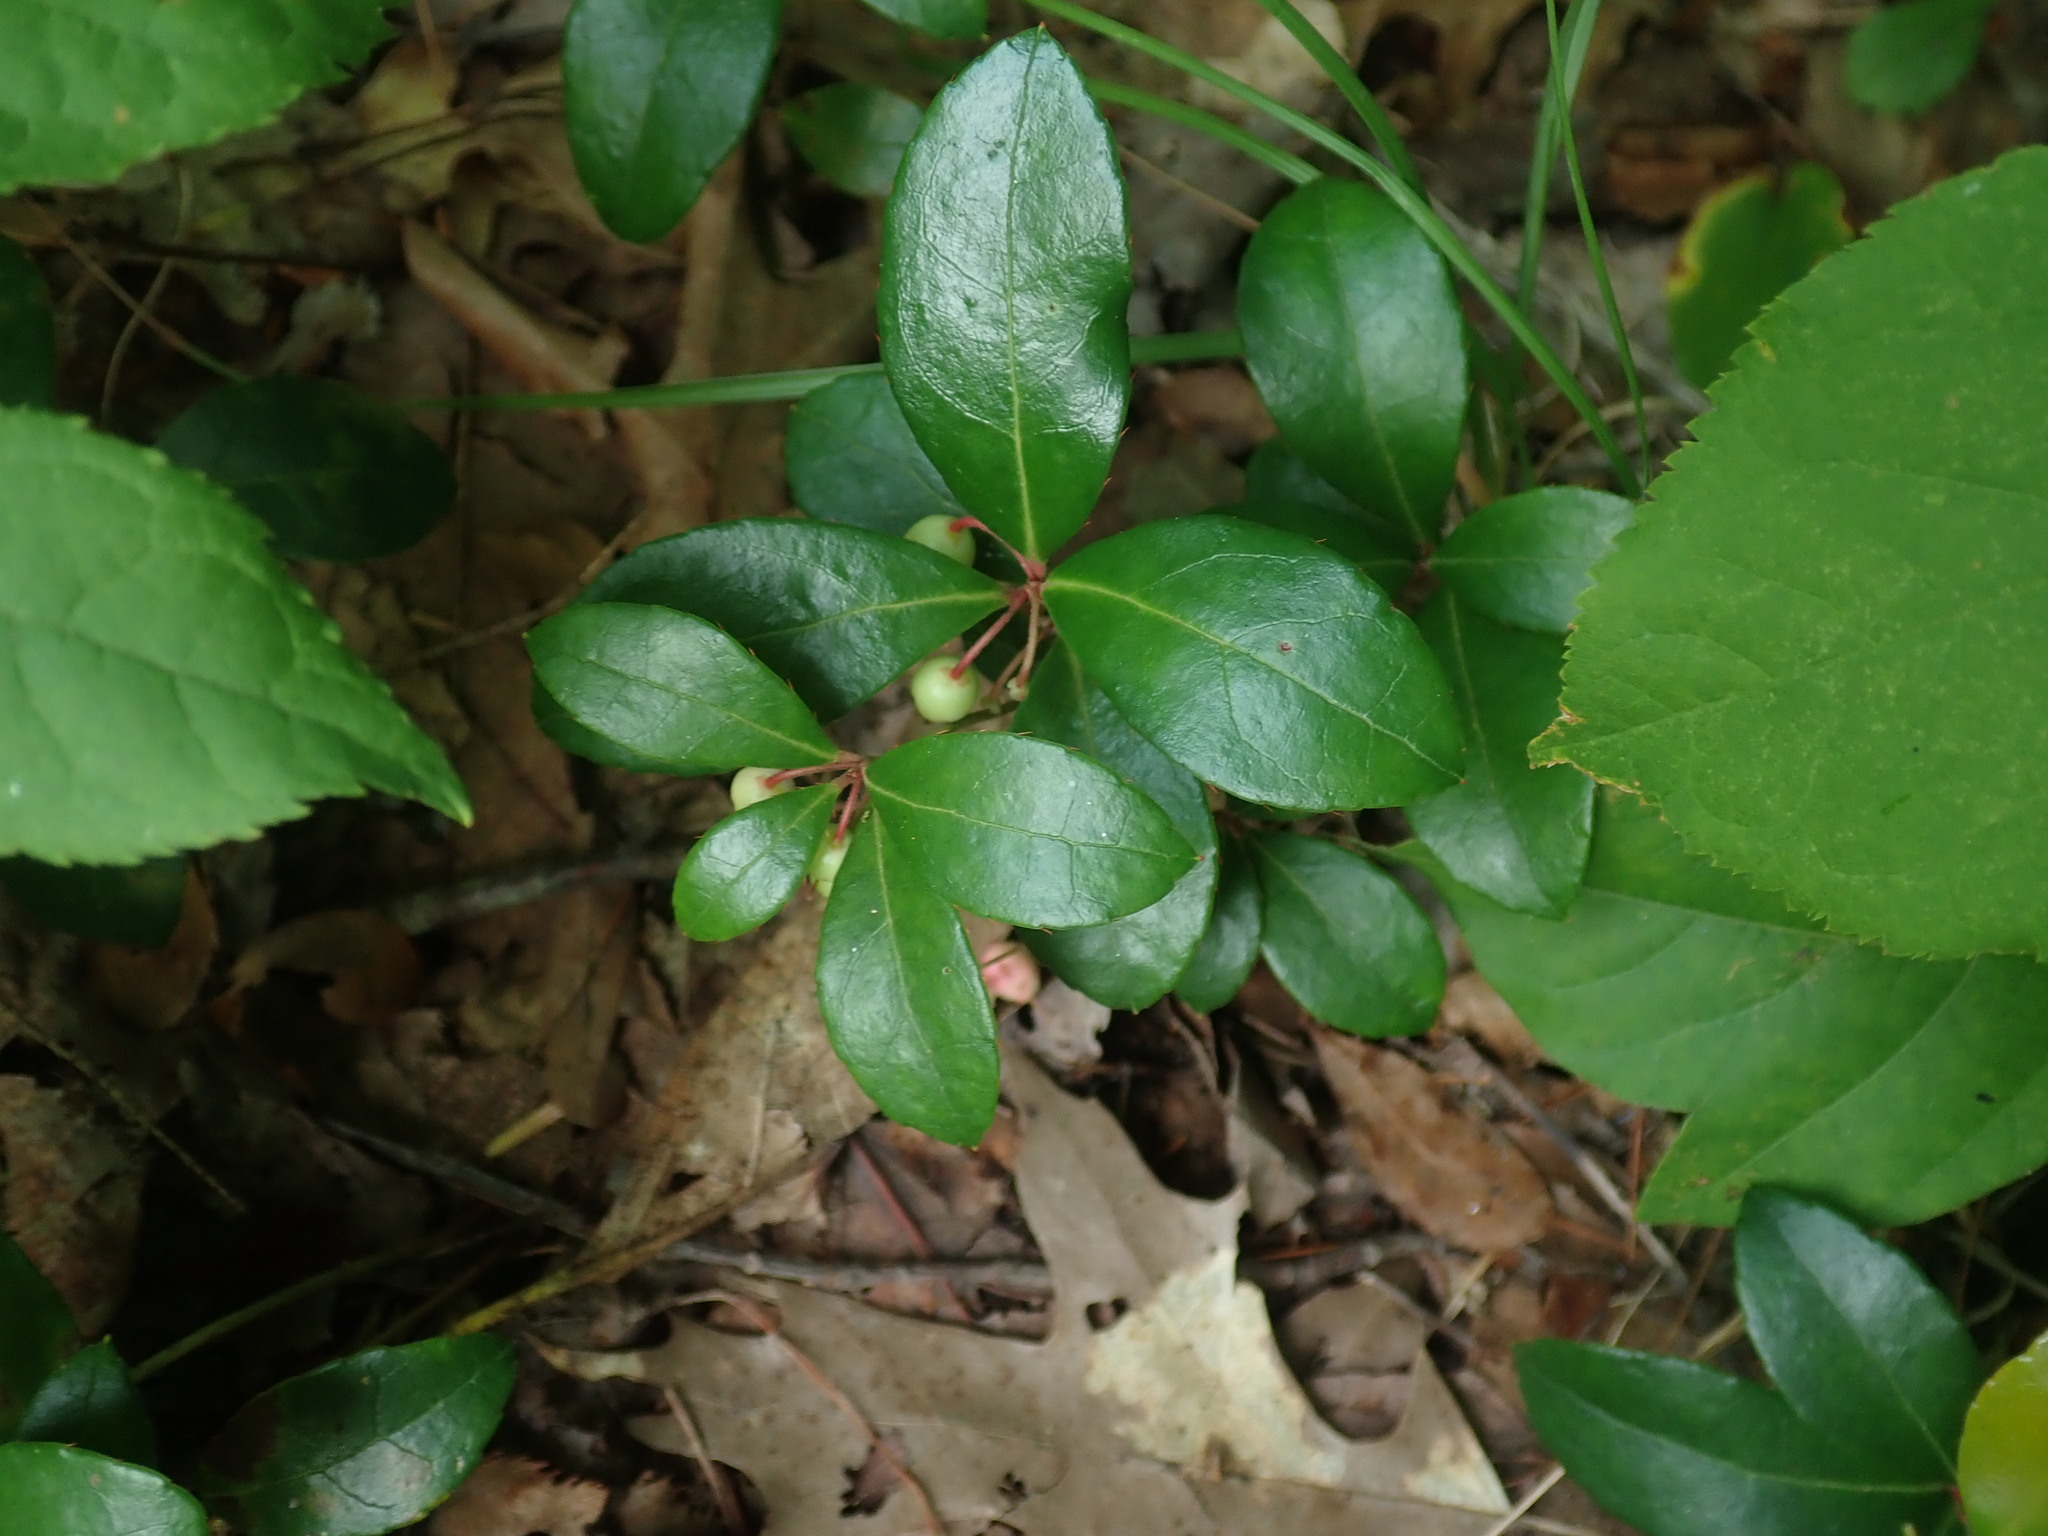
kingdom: Plantae
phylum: Tracheophyta
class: Magnoliopsida
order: Ericales
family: Ericaceae
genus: Gaultheria
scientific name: Gaultheria procumbens
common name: Checkerberry
